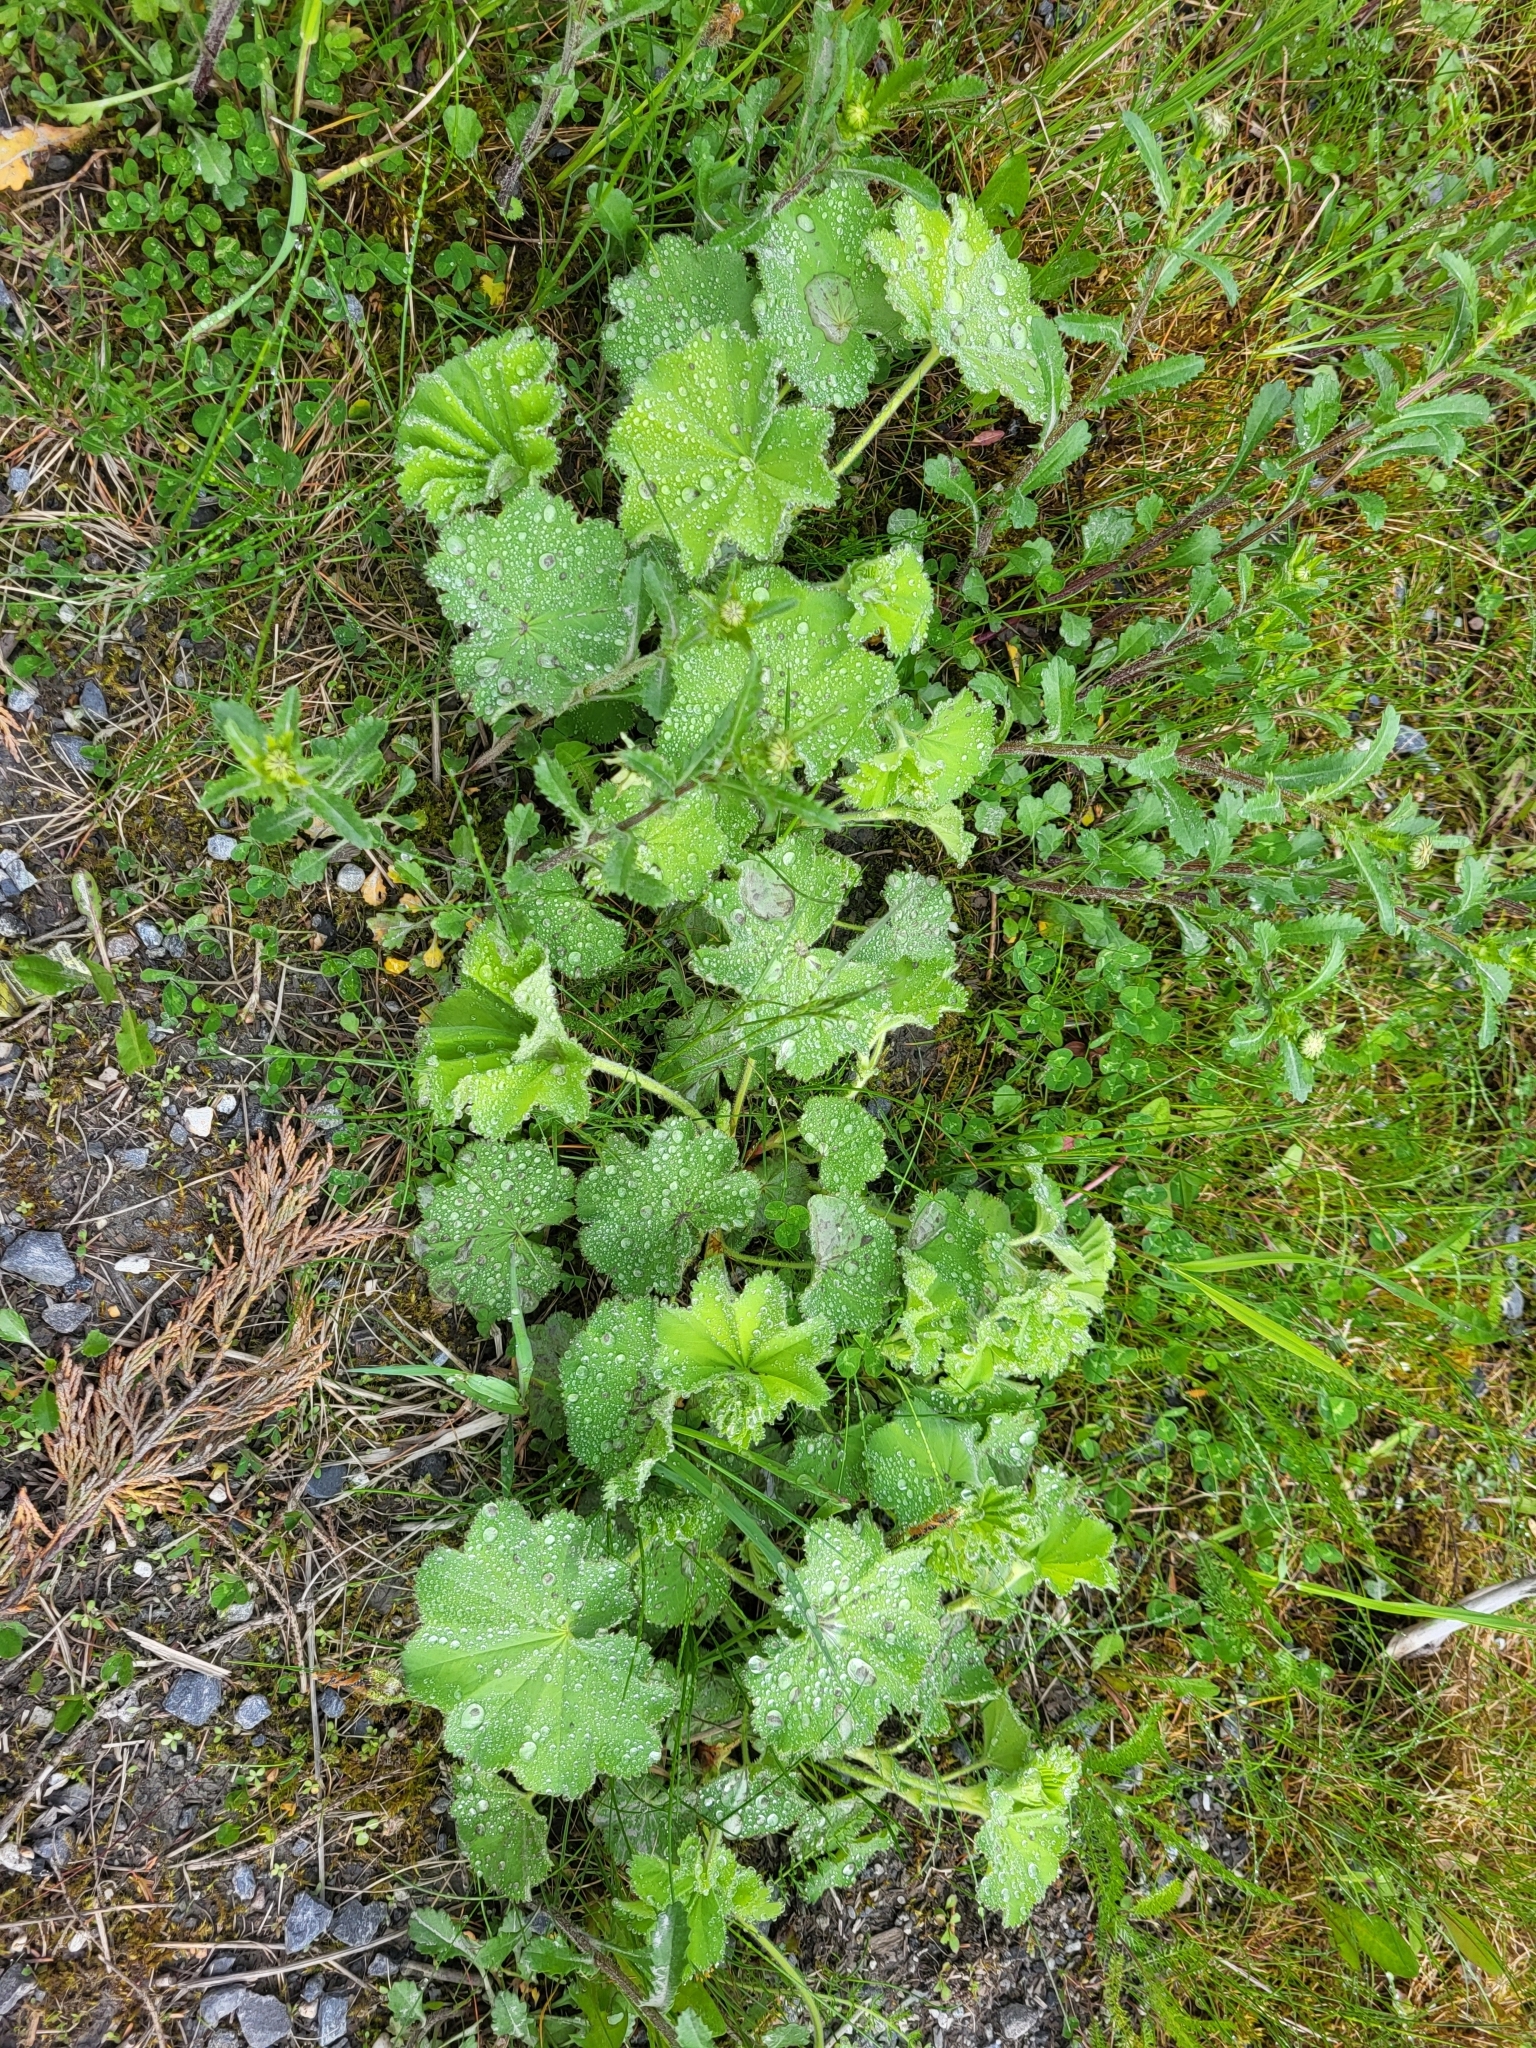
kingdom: Plantae
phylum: Tracheophyta
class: Magnoliopsida
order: Rosales
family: Rosaceae
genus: Alchemilla
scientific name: Alchemilla mollis
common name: Lady's-mantle
